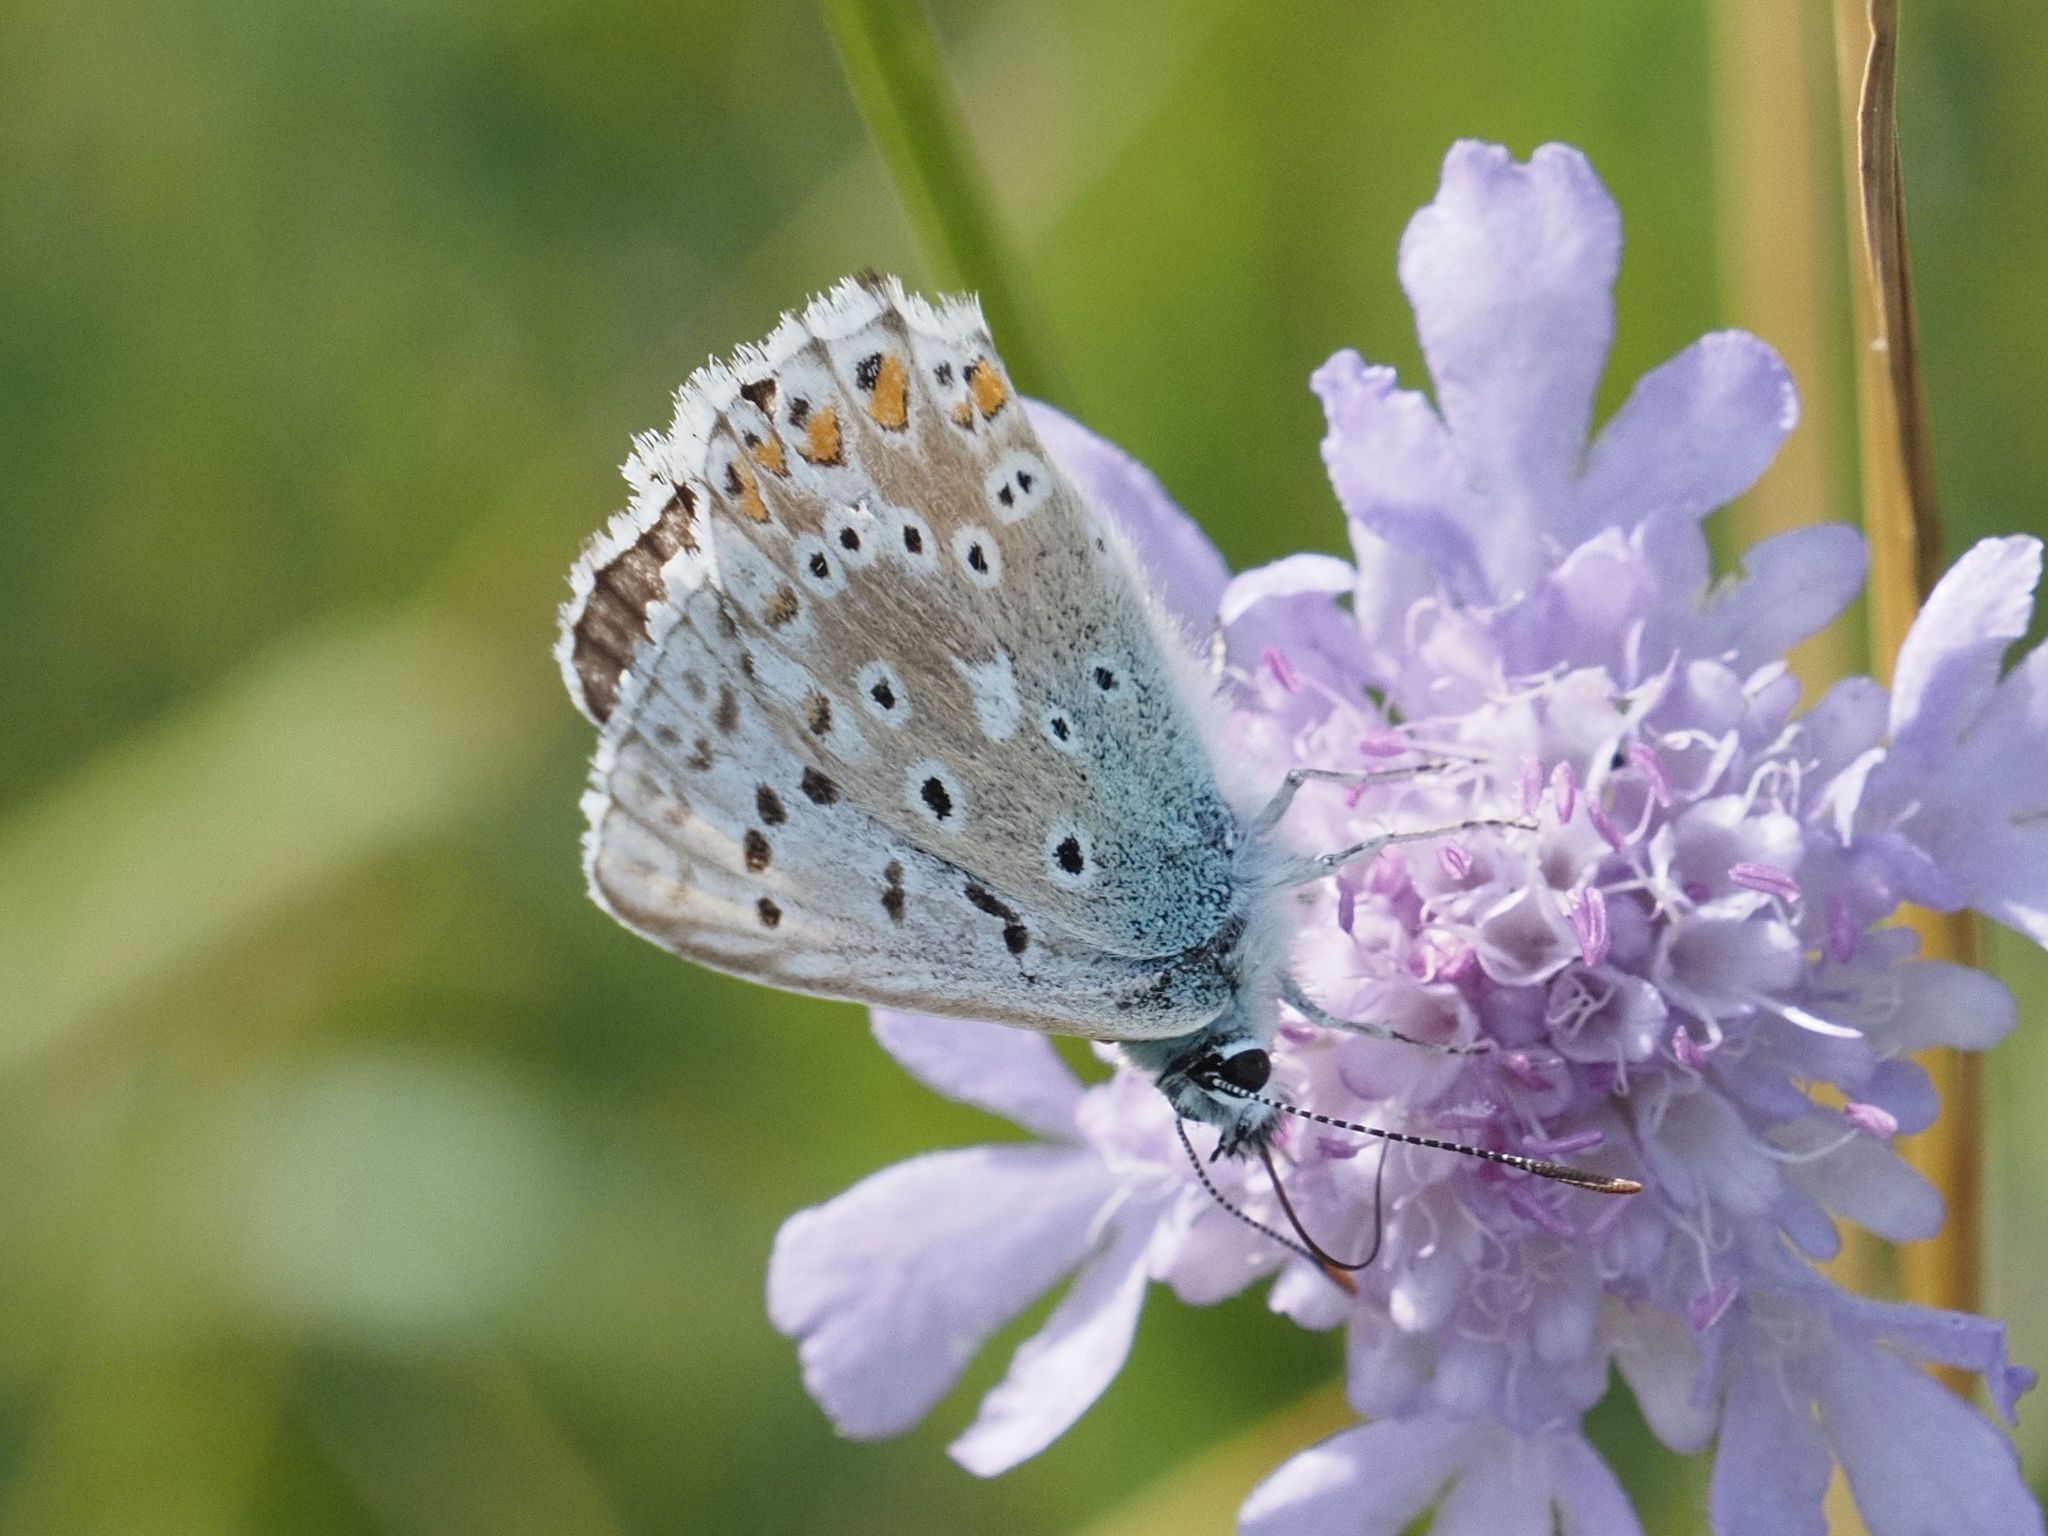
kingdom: Animalia
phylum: Arthropoda
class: Insecta
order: Lepidoptera
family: Lycaenidae
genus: Lysandra
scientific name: Lysandra coridon
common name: Chalkhill blue
